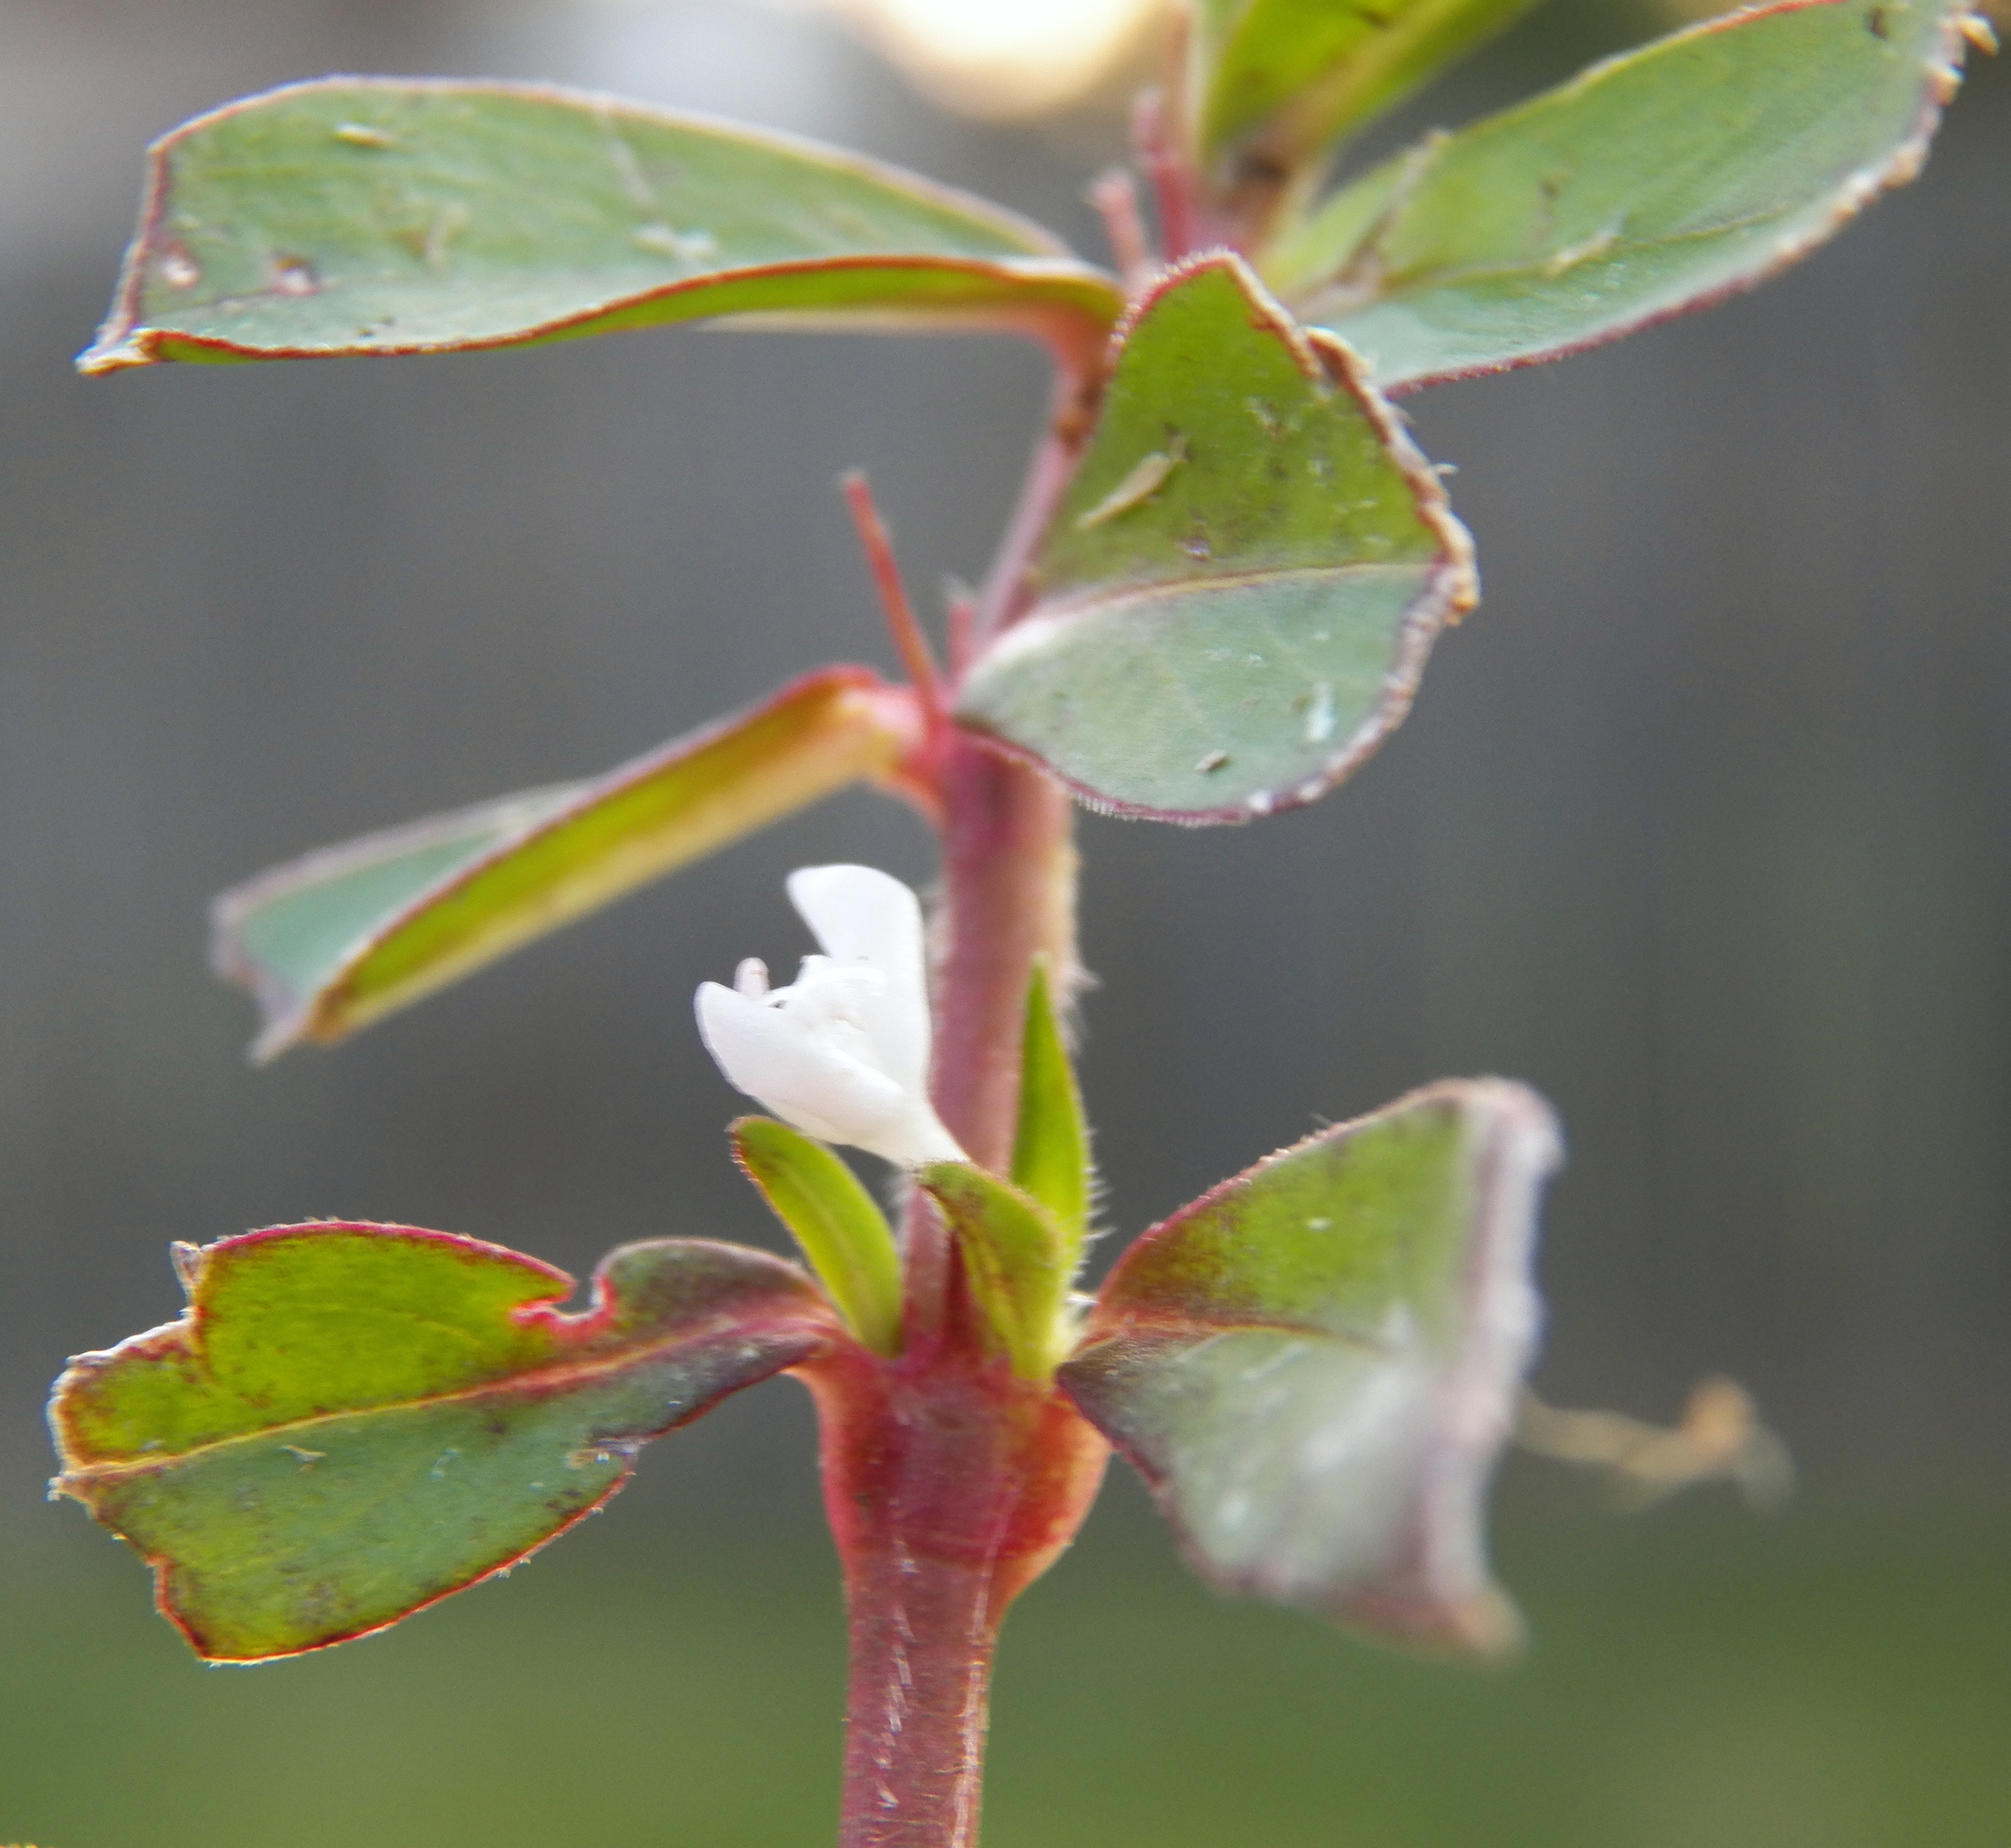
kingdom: Plantae
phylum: Tracheophyta
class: Magnoliopsida
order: Gentianales
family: Rubiaceae
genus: Diodia
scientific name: Diodia virginiana
